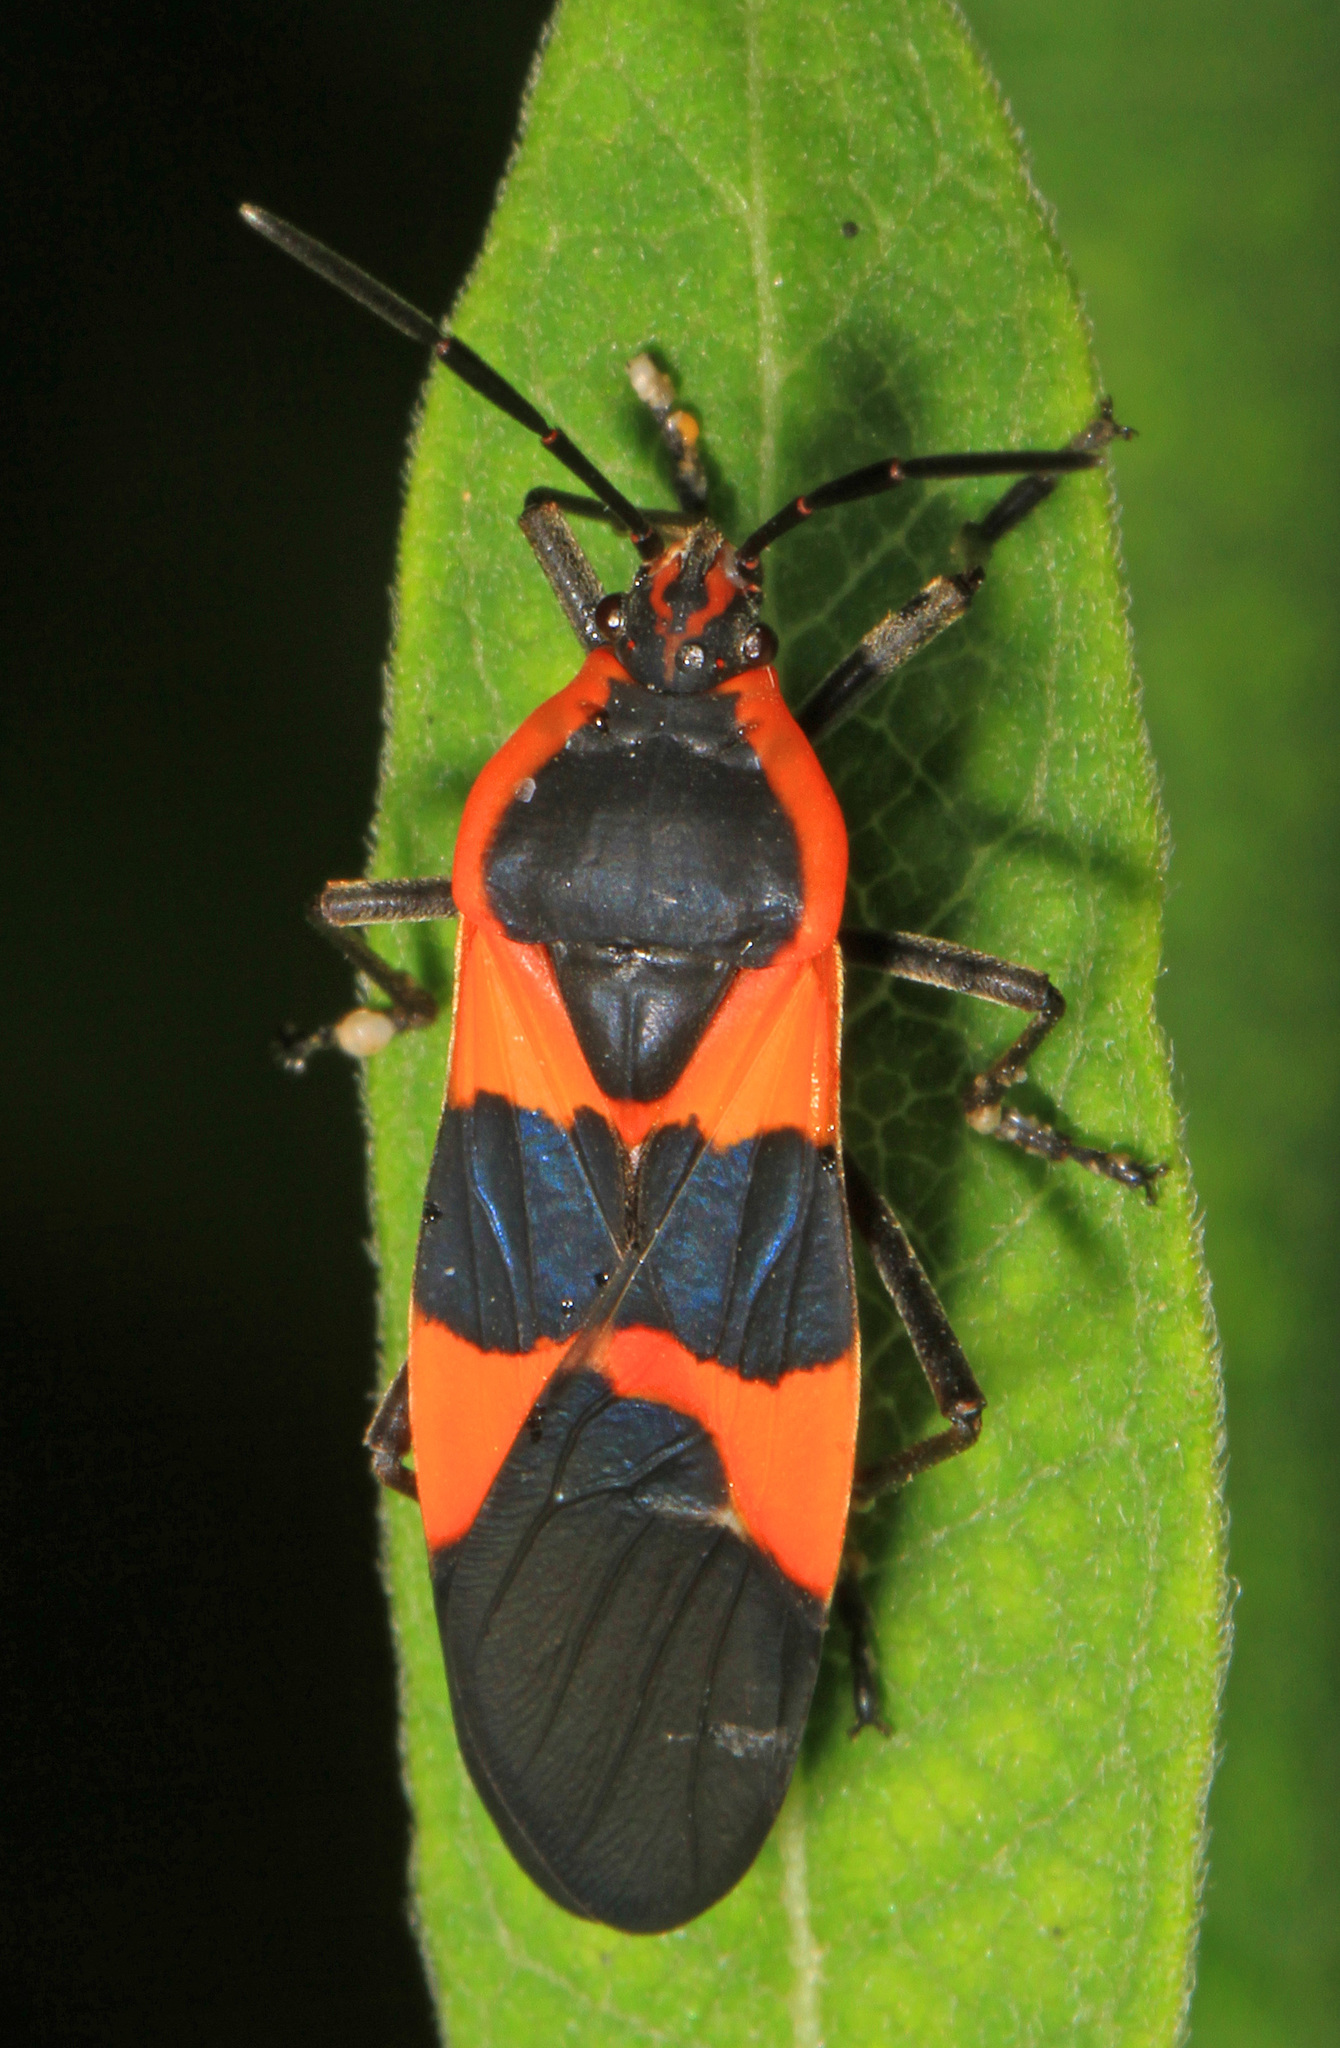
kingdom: Animalia
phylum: Arthropoda
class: Insecta
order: Hemiptera
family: Lygaeidae
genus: Oncopeltus
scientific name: Oncopeltus fasciatus
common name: Large milkweed bug
